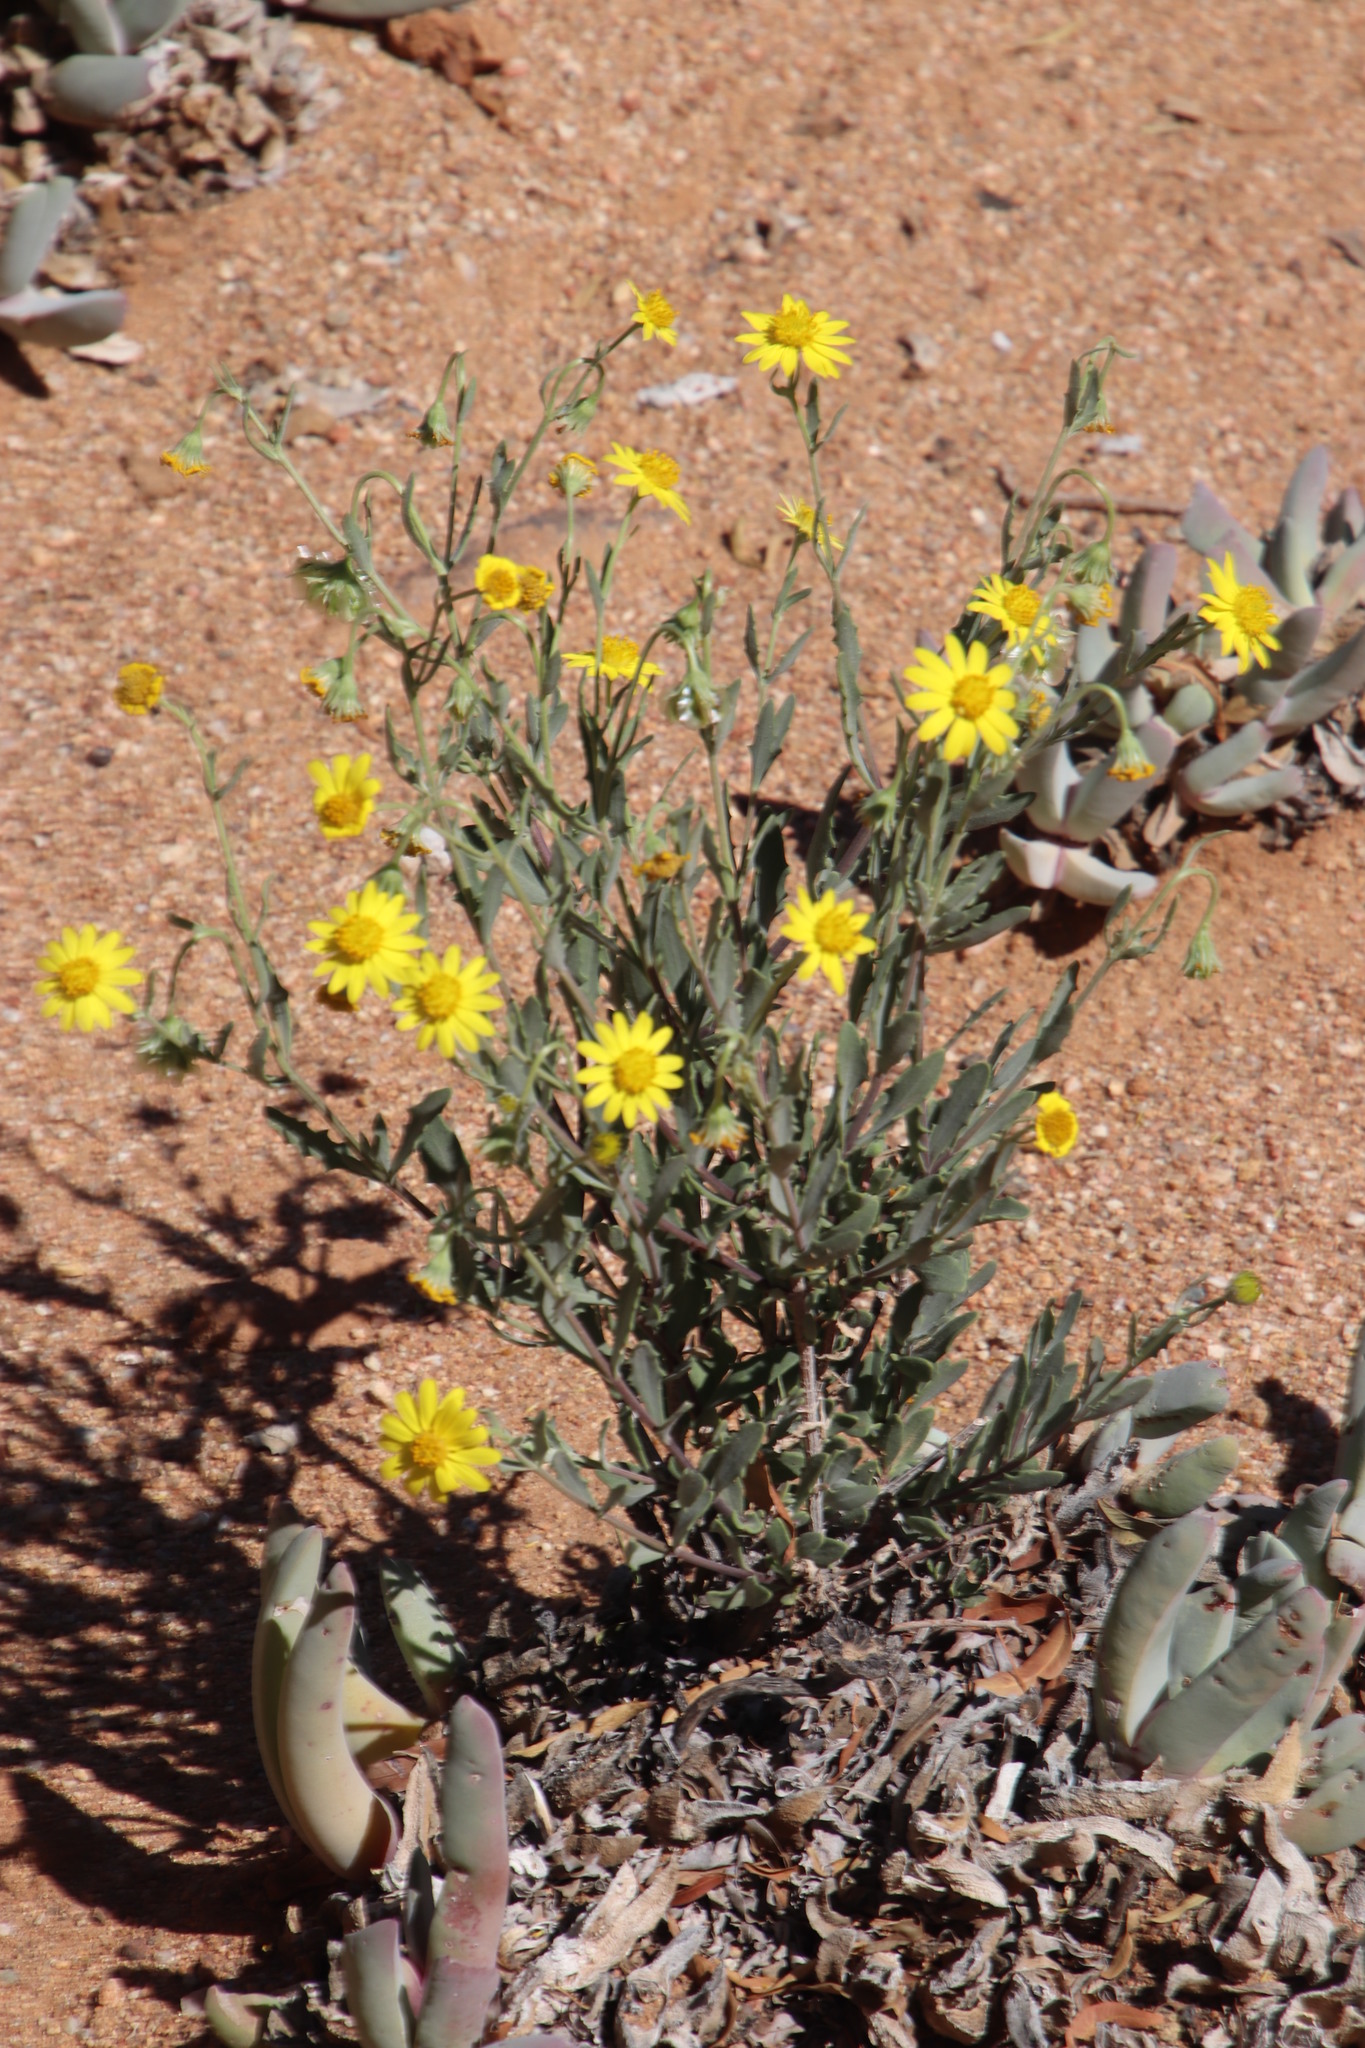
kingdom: Plantae
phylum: Tracheophyta
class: Magnoliopsida
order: Asterales
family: Asteraceae
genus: Osteospermum
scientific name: Osteospermum sinuatum
